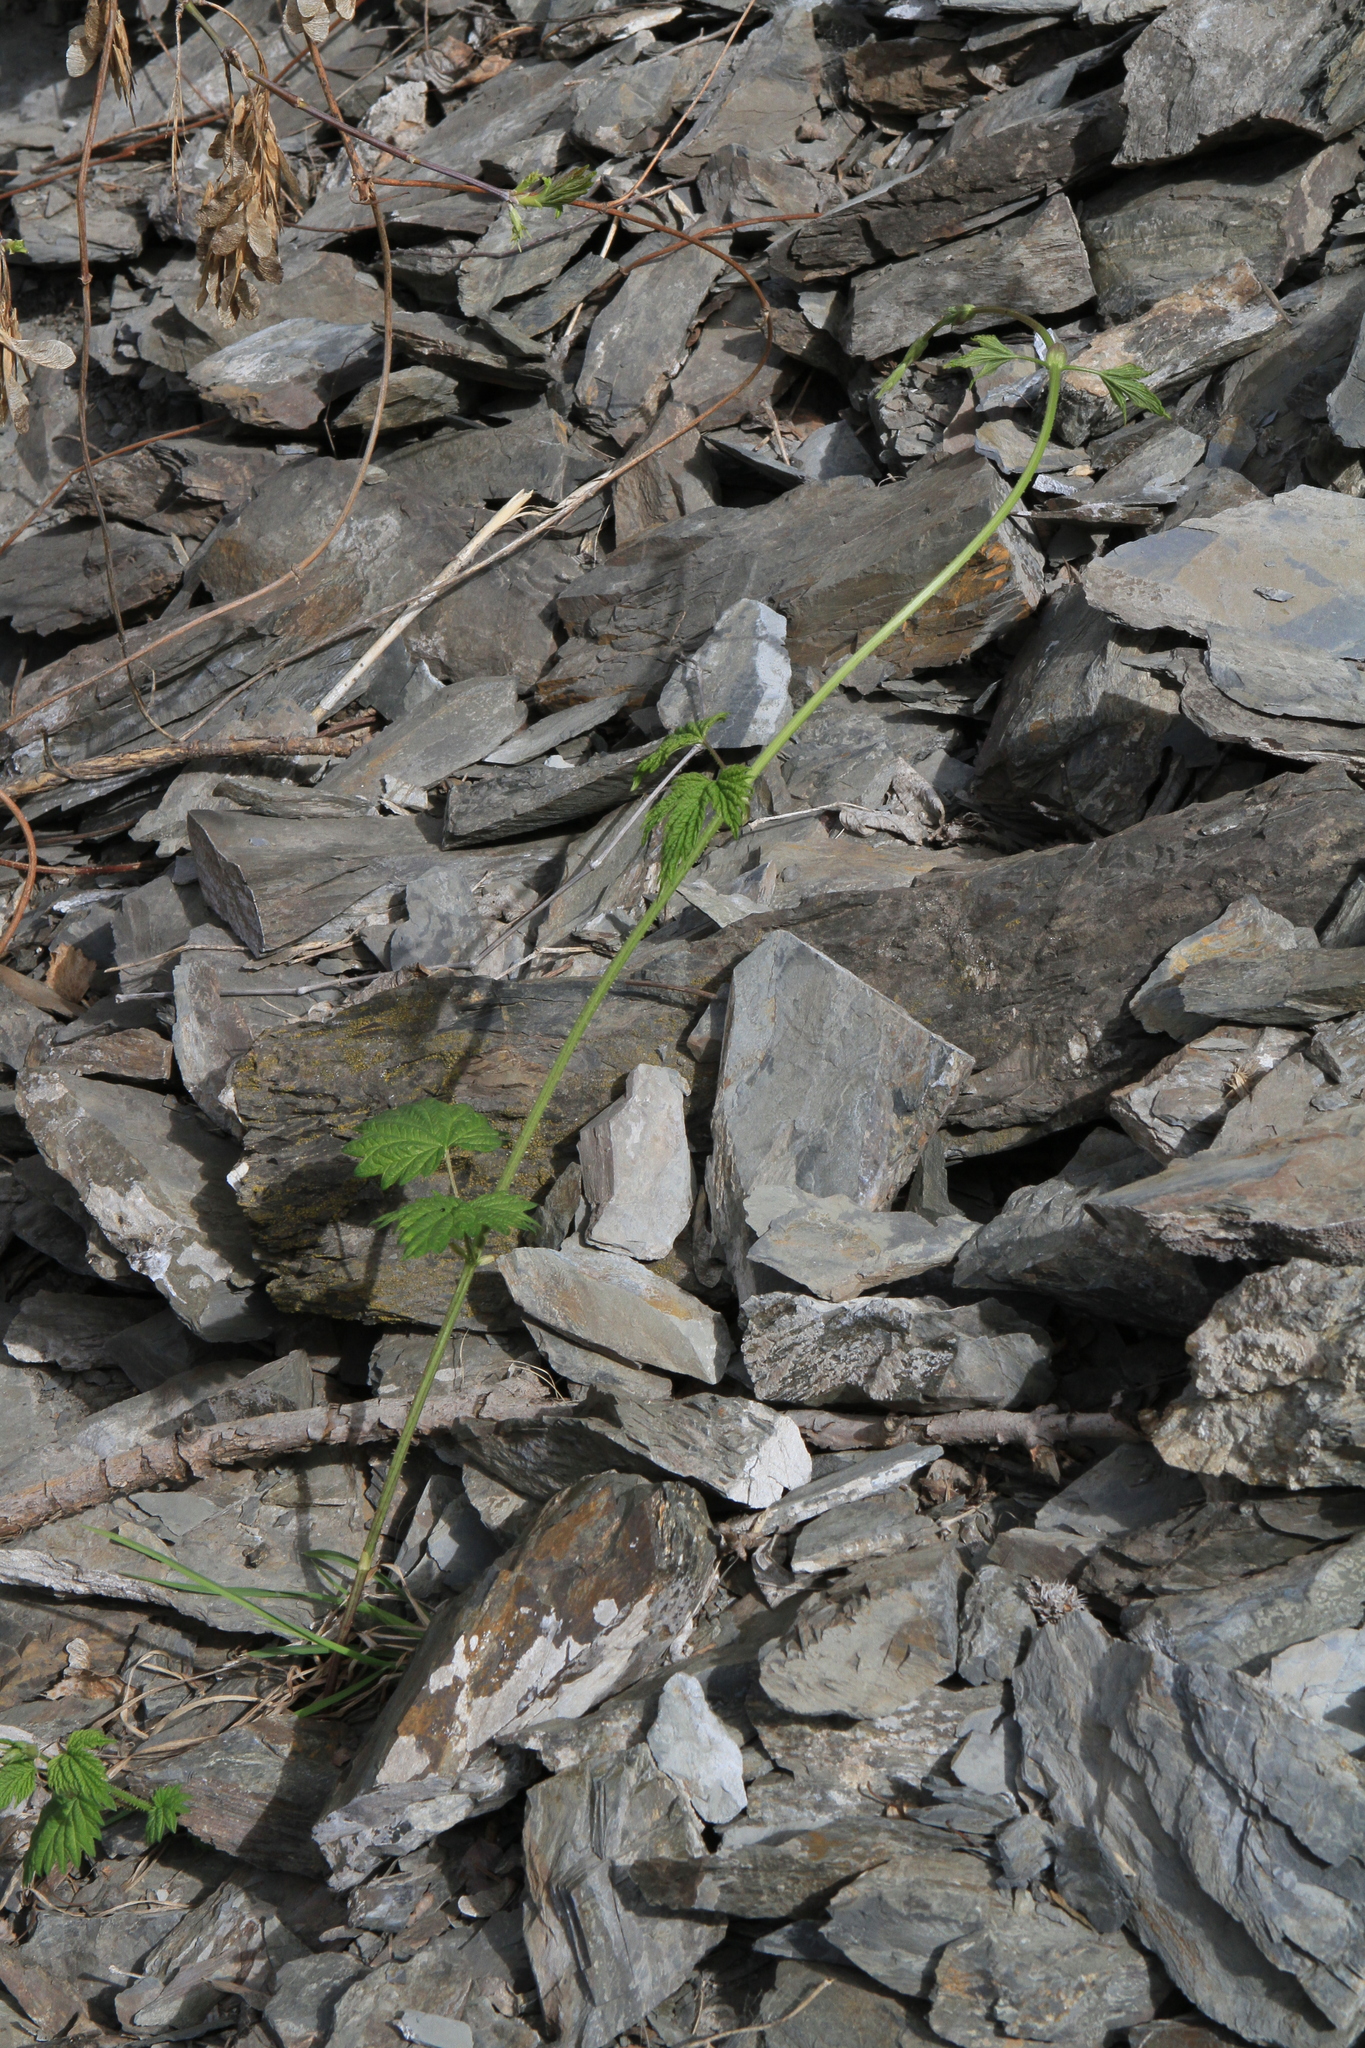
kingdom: Plantae
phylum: Tracheophyta
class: Magnoliopsida
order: Rosales
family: Cannabaceae
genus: Humulus
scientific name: Humulus lupulus
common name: Hop
